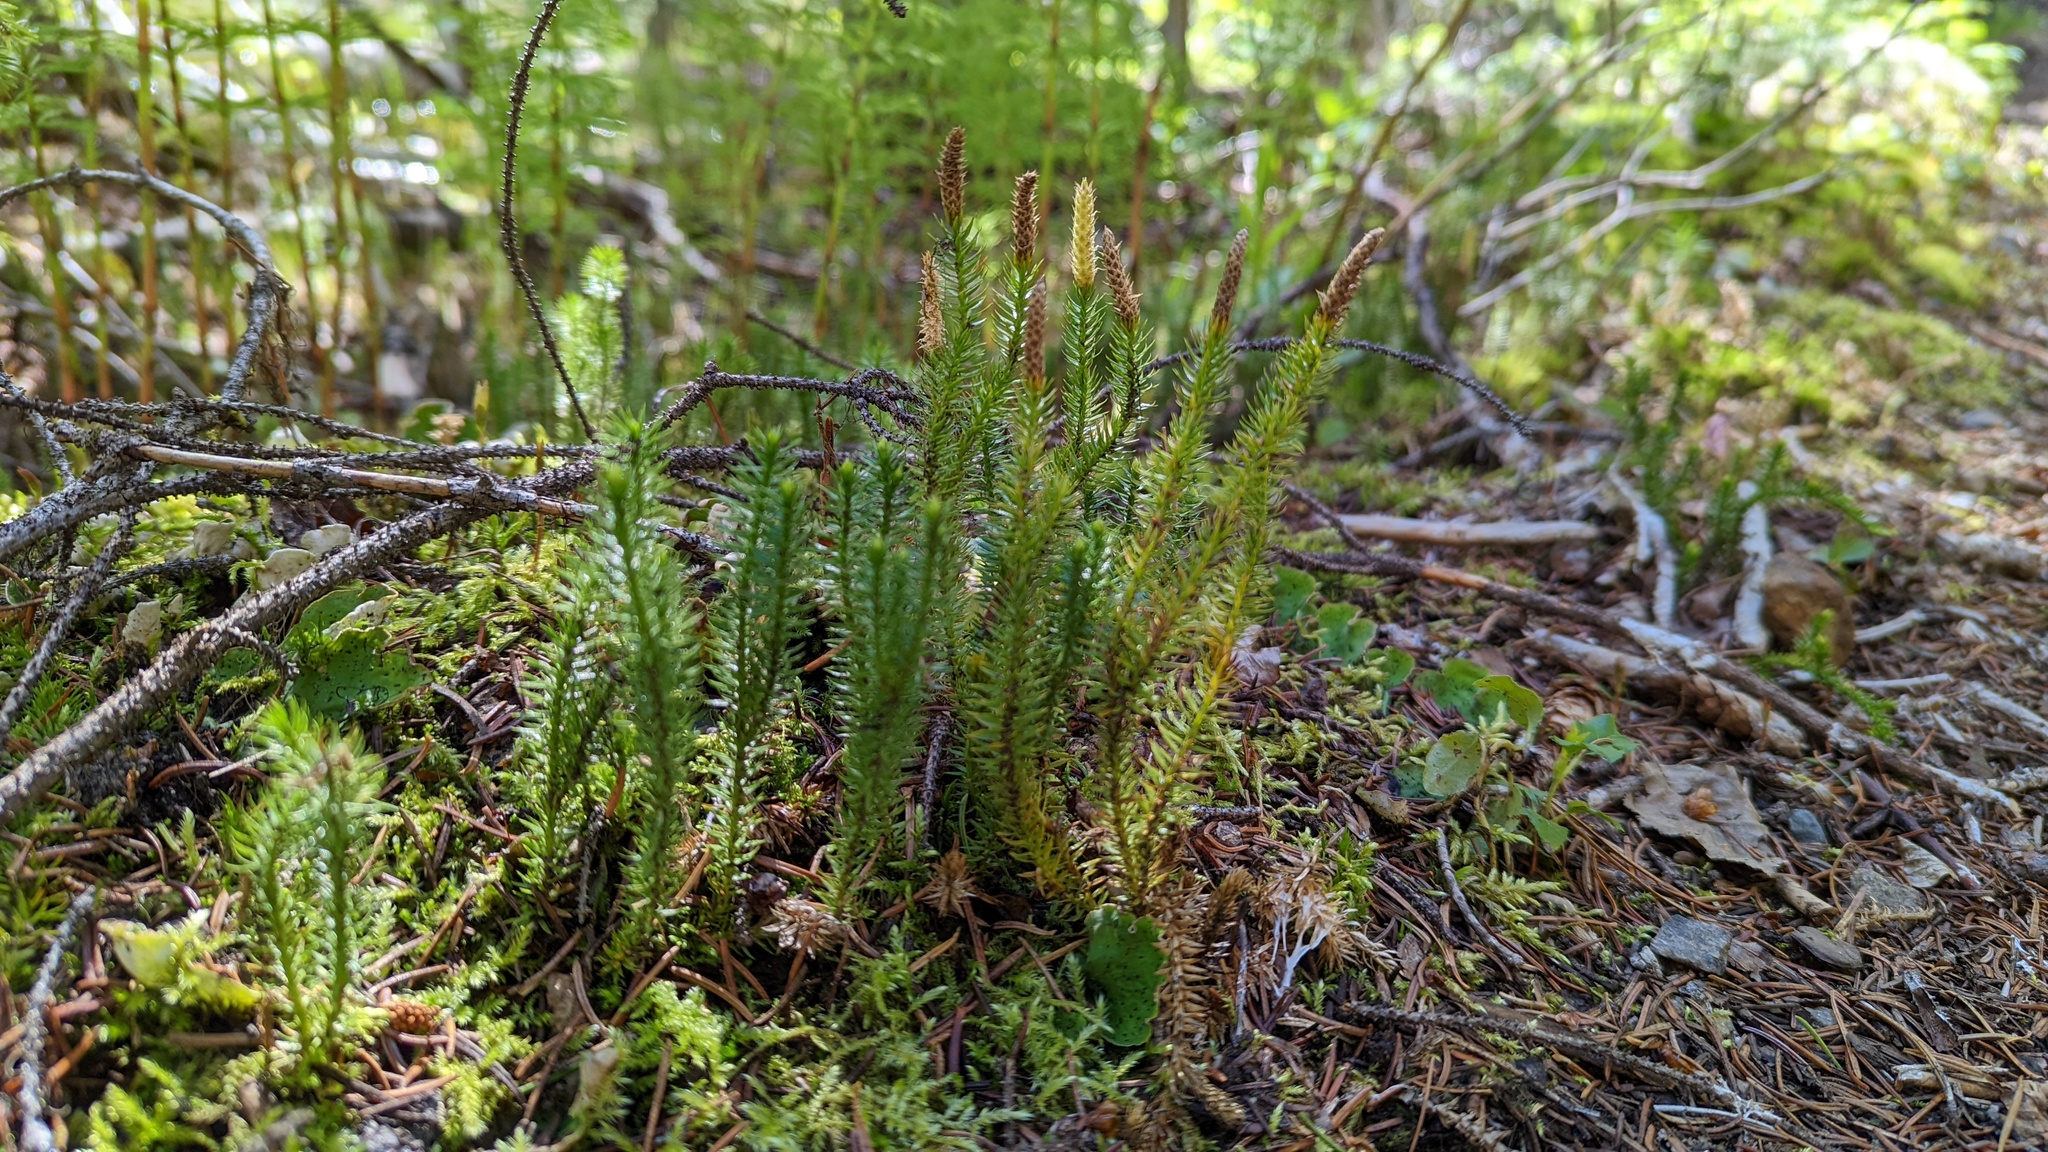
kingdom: Plantae
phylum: Tracheophyta
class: Lycopodiopsida
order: Lycopodiales
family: Lycopodiaceae
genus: Spinulum
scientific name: Spinulum annotinum
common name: Interrupted club-moss
